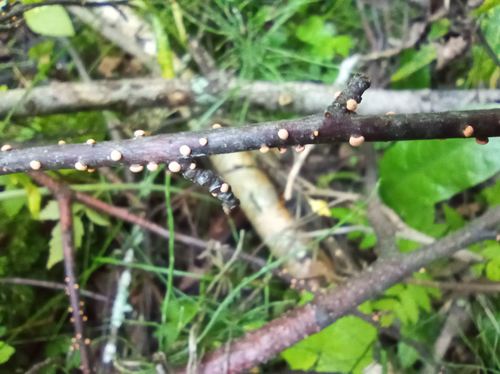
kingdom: Fungi
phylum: Ascomycota
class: Sordariomycetes
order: Hypocreales
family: Nectriaceae
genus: Nectria
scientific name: Nectria cinnabarina
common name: Coral spot
